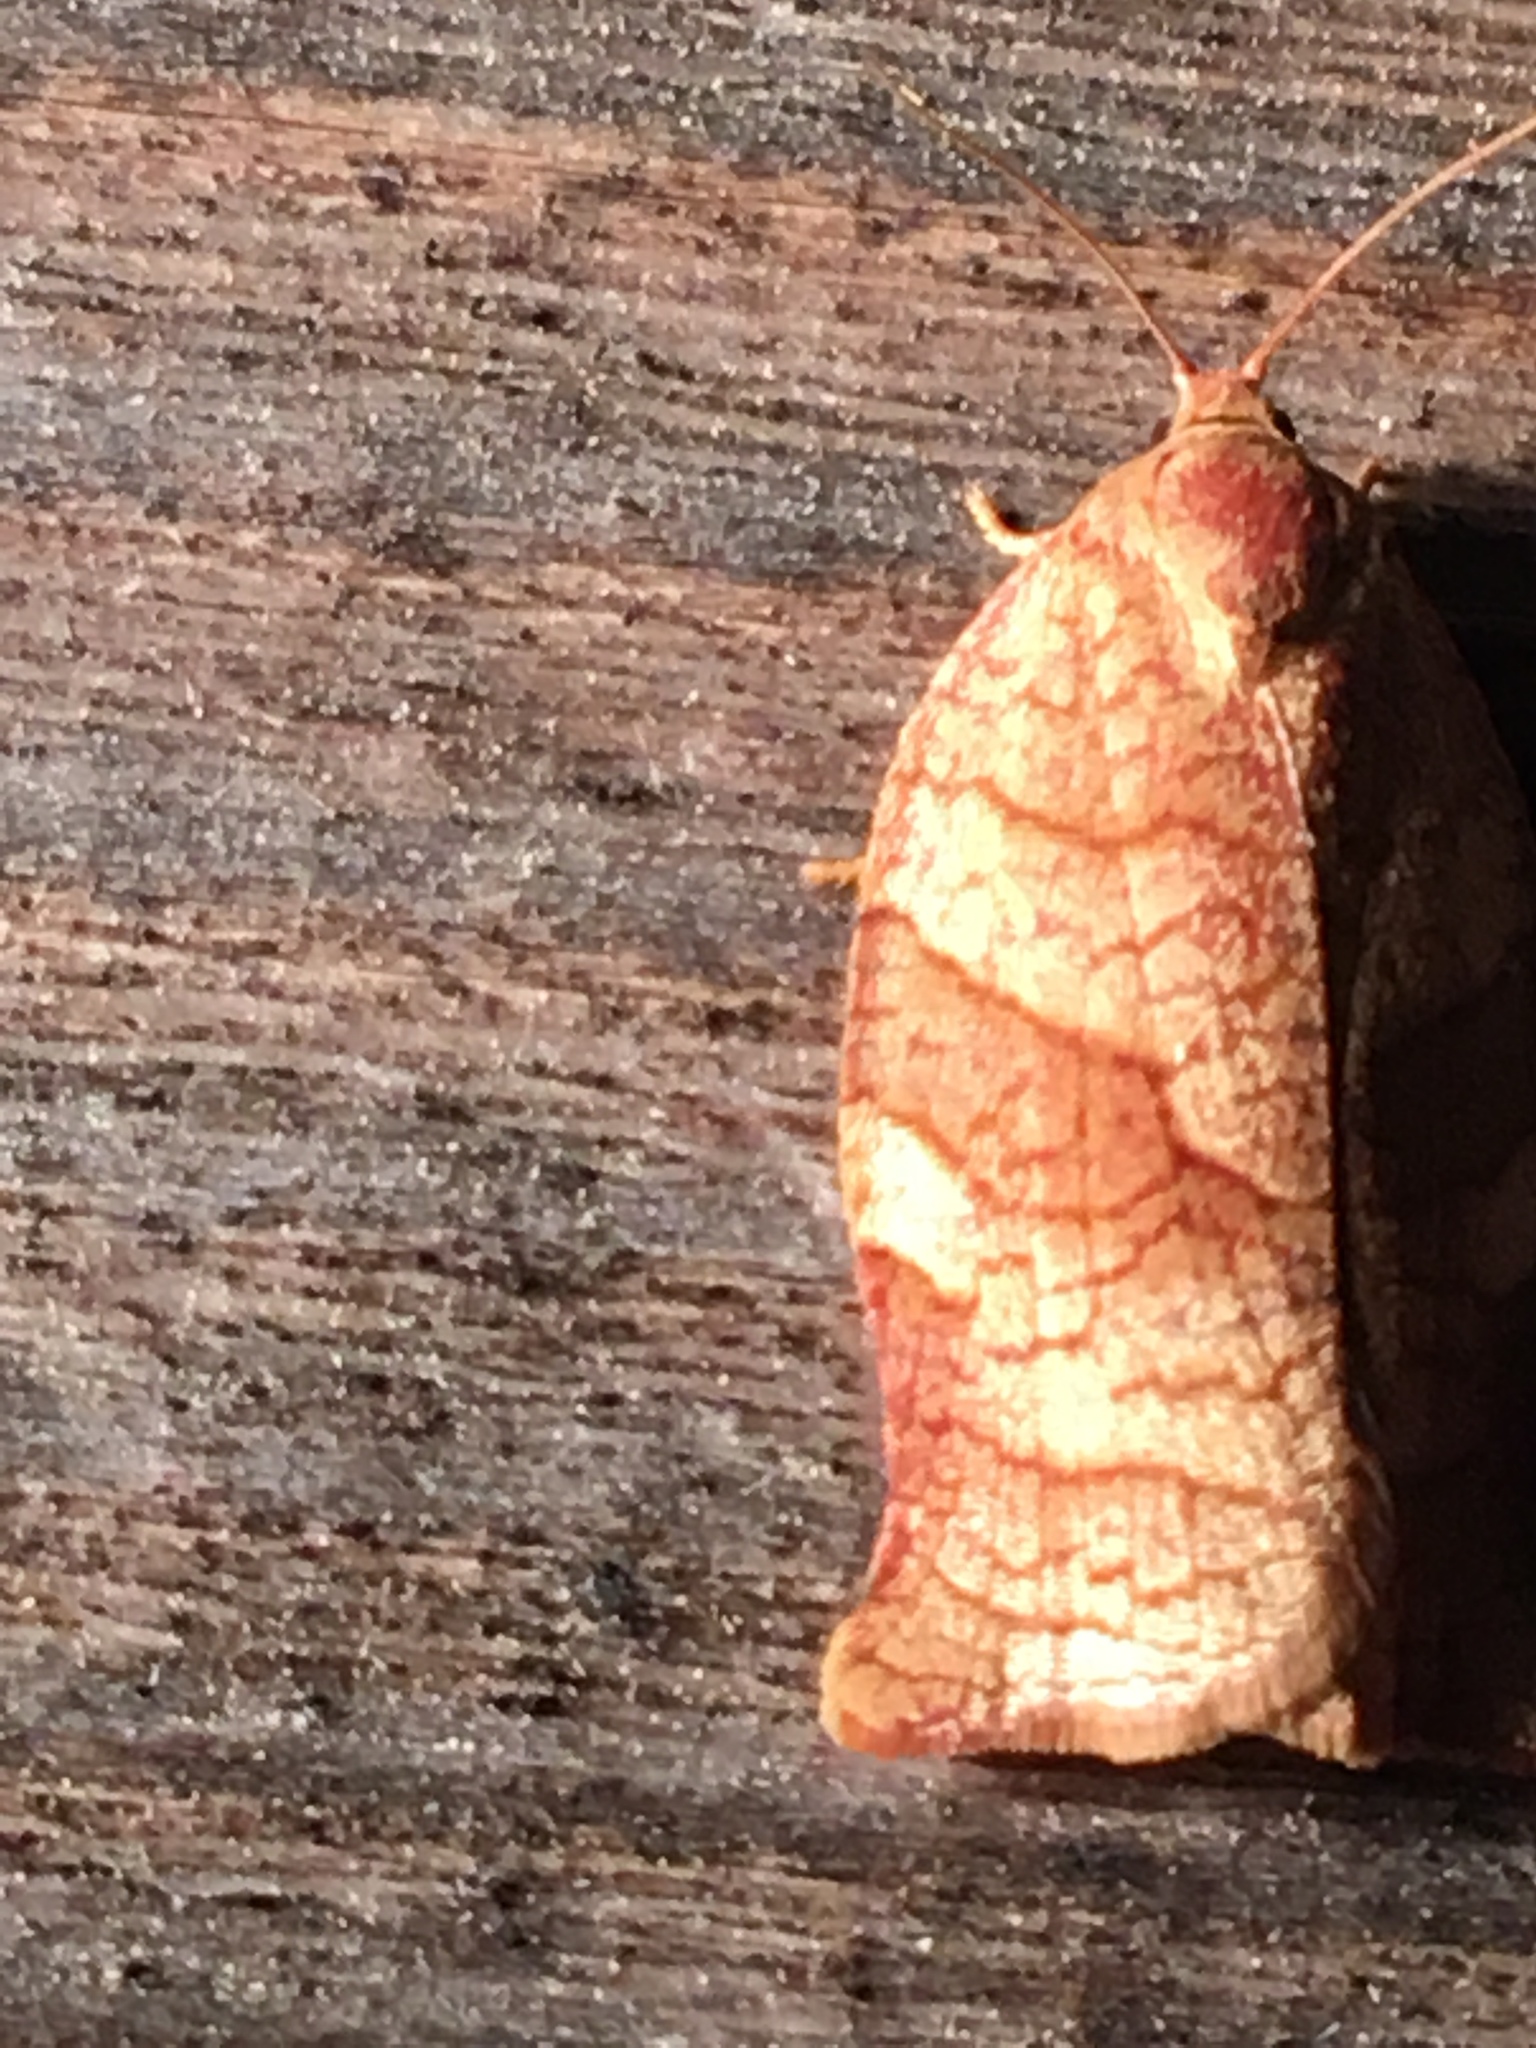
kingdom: Animalia
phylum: Arthropoda
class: Insecta
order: Lepidoptera
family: Tortricidae
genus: Choristoneura
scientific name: Choristoneura rosaceana
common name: Oblique-banded leafroller moth
